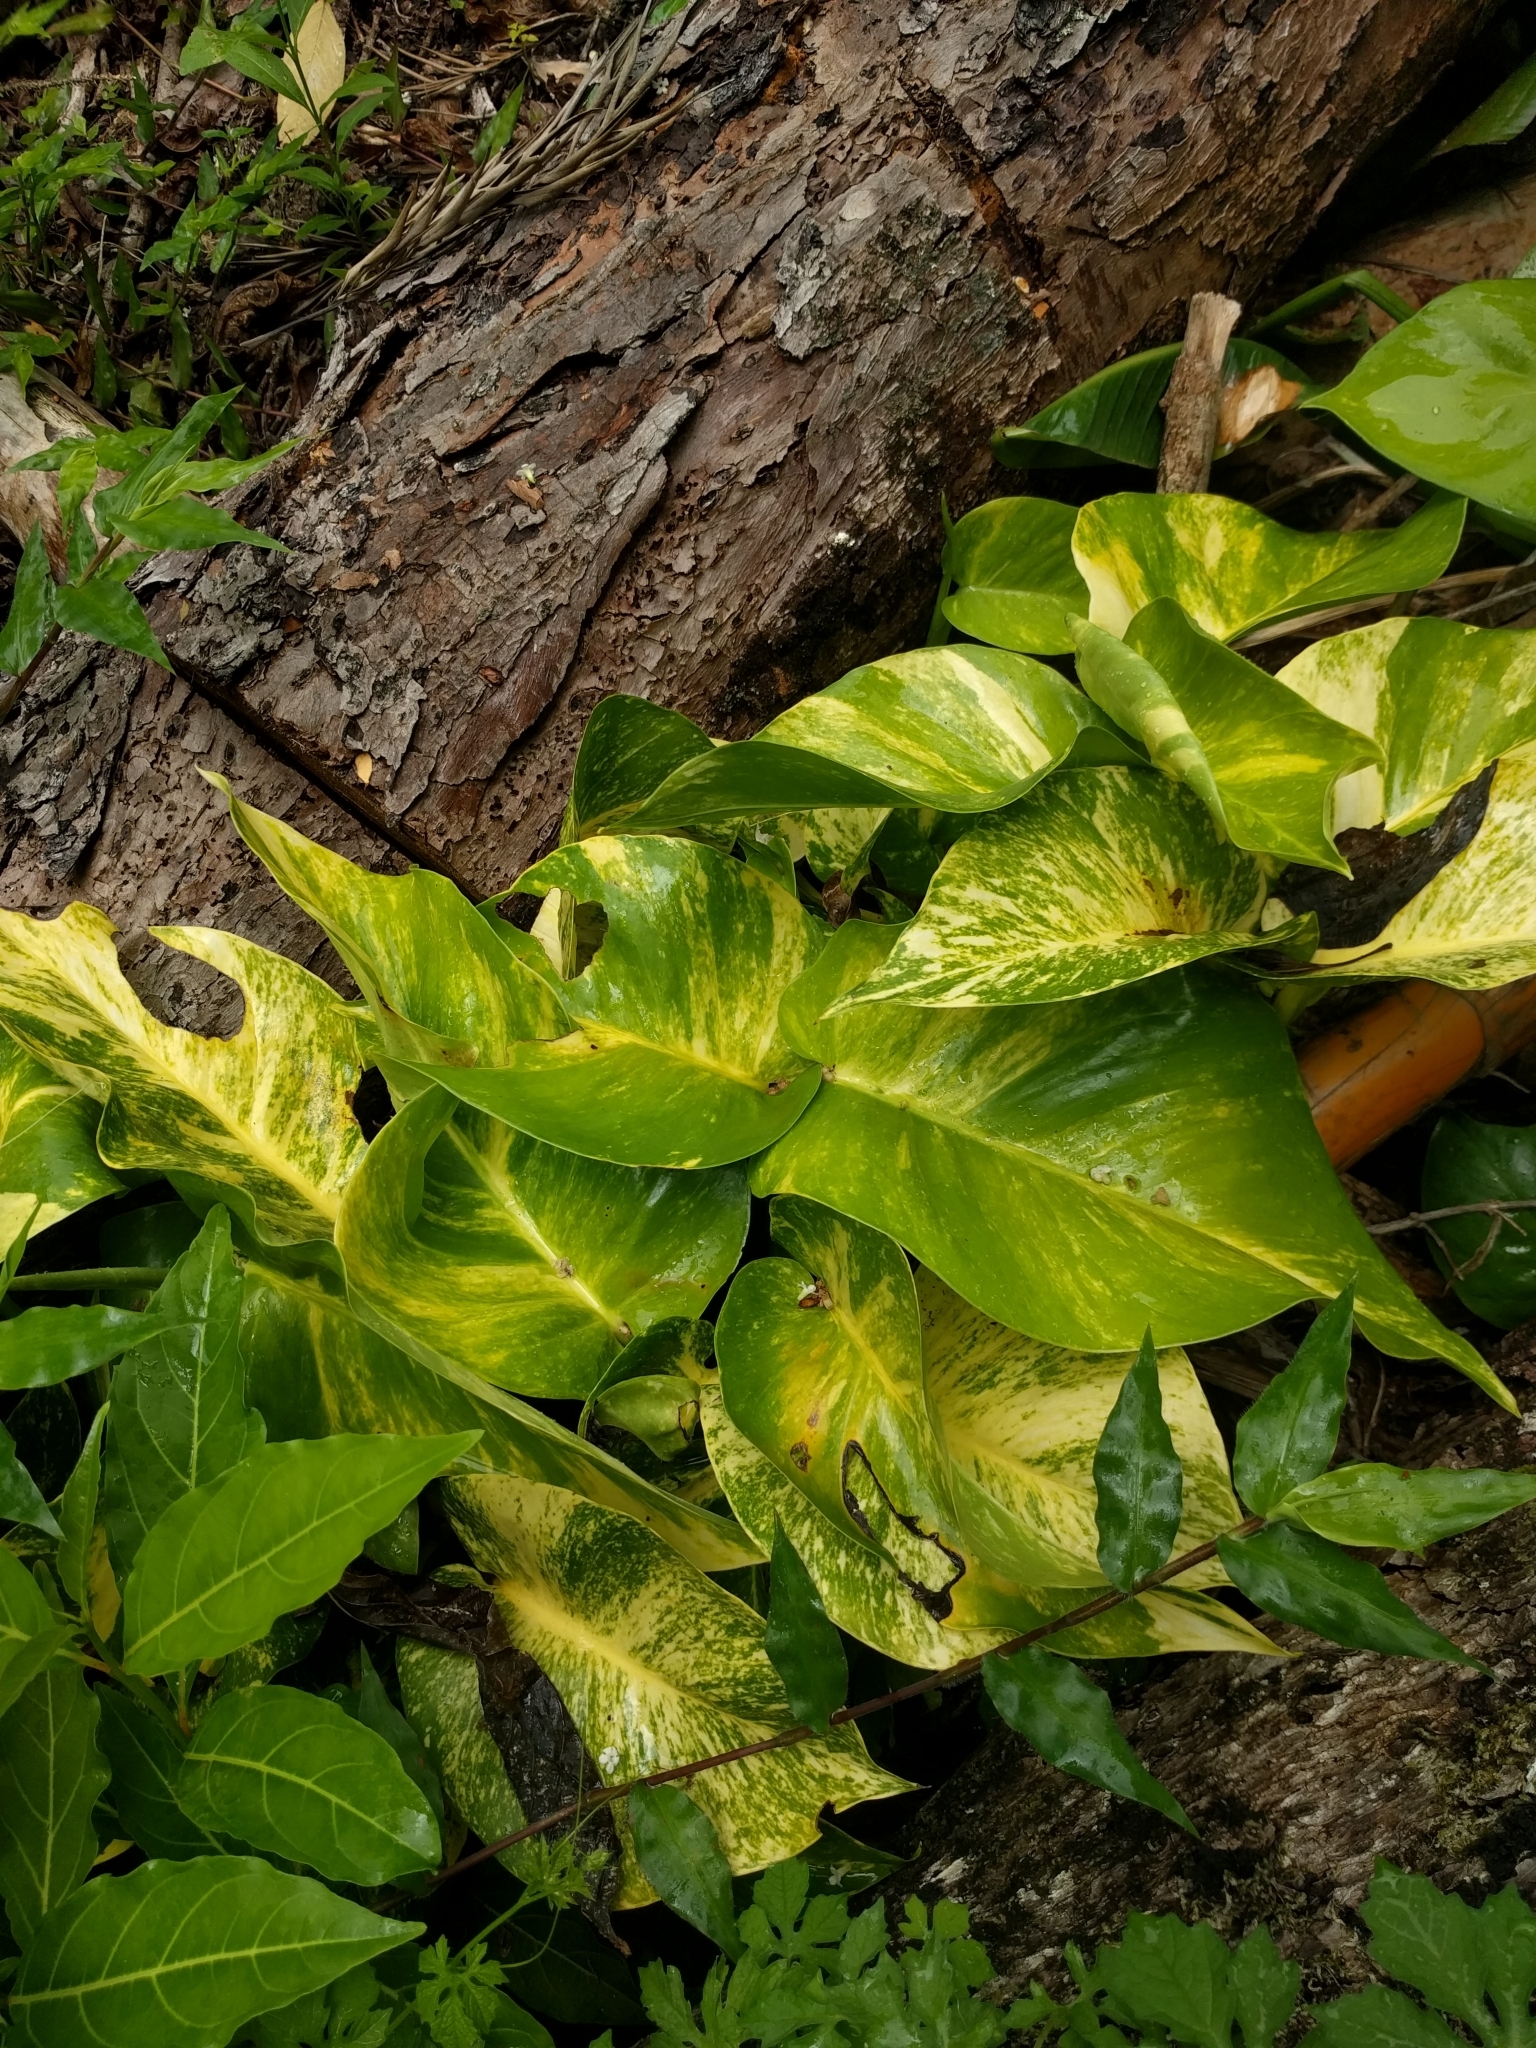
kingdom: Plantae
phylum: Tracheophyta
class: Liliopsida
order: Alismatales
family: Araceae
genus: Epipremnum
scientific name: Epipremnum aureum
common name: Golden hunter's-robe
